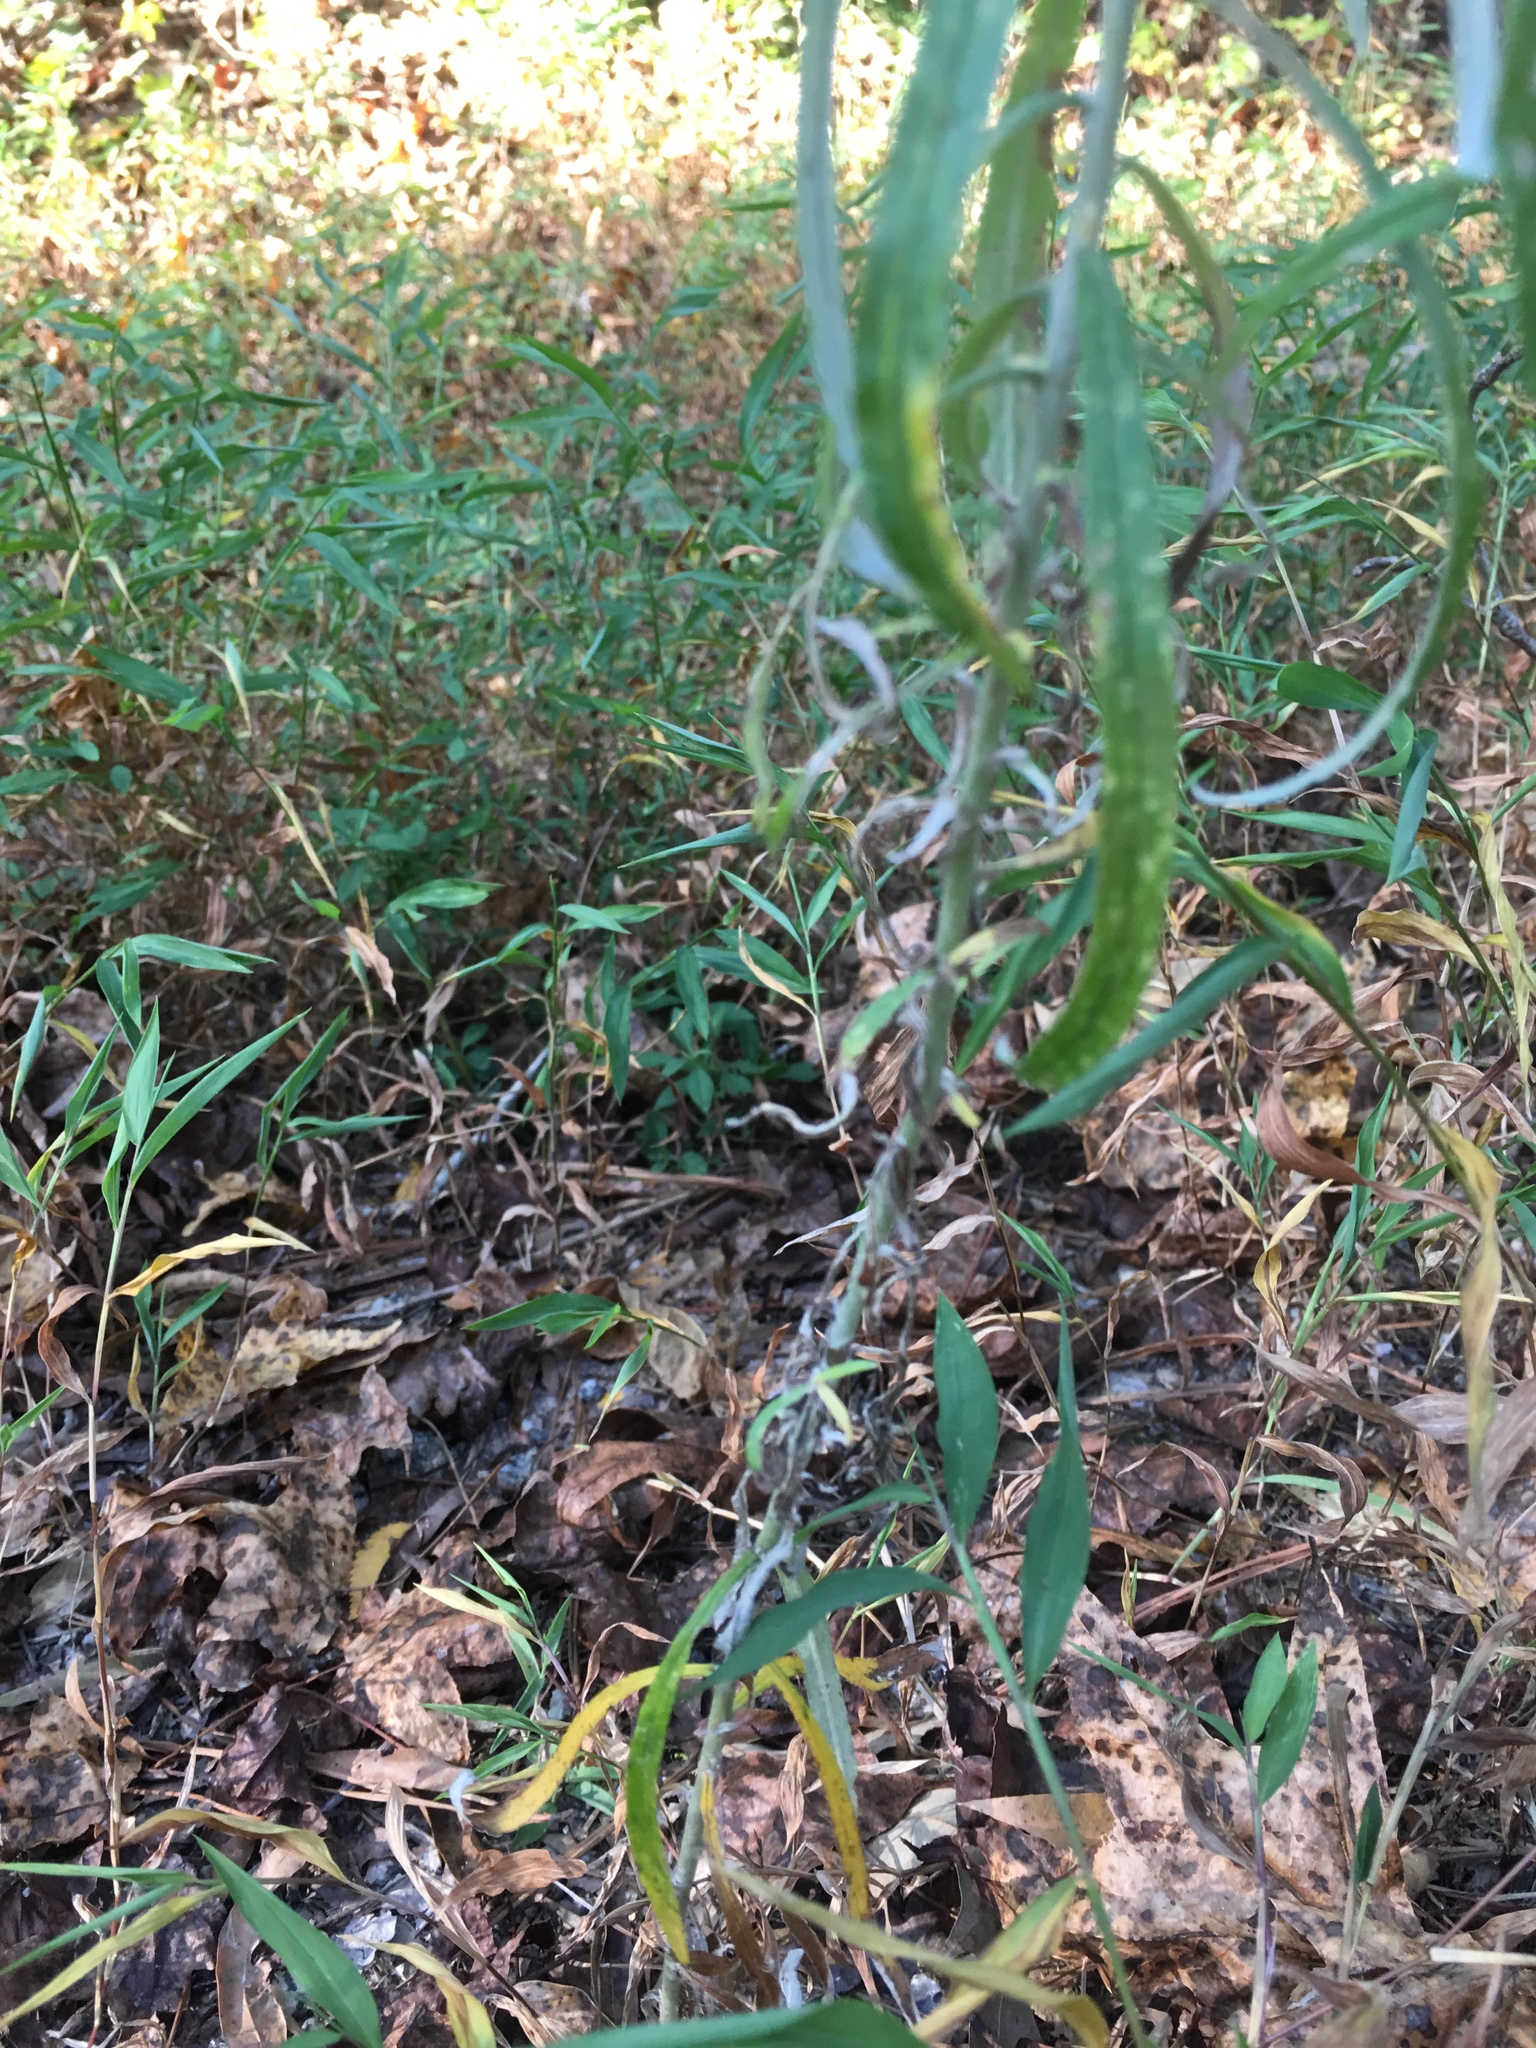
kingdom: Plantae
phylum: Tracheophyta
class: Magnoliopsida
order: Asterales
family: Asteraceae
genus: Pseudognaphalium
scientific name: Pseudognaphalium obtusifolium
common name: Eastern rabbit-tobacco
